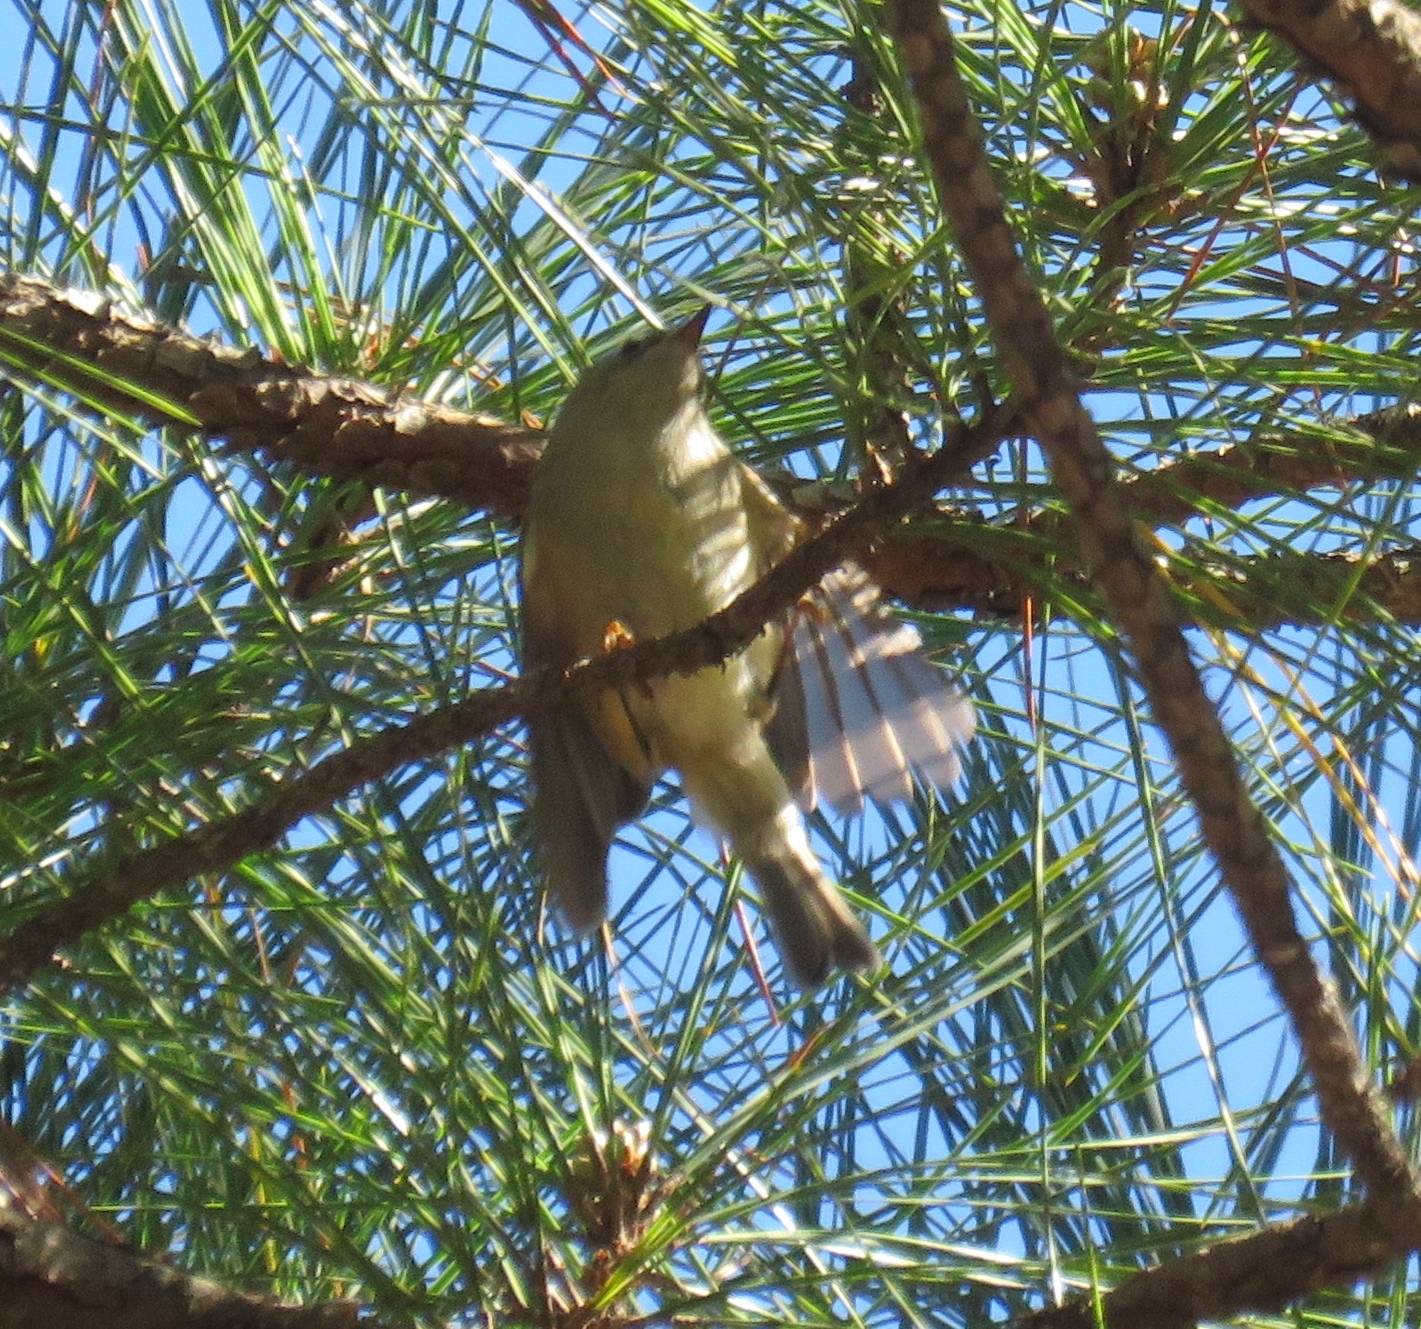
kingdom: Animalia
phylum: Chordata
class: Aves
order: Passeriformes
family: Regulidae
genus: Regulus
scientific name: Regulus calendula
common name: Ruby-crowned kinglet
